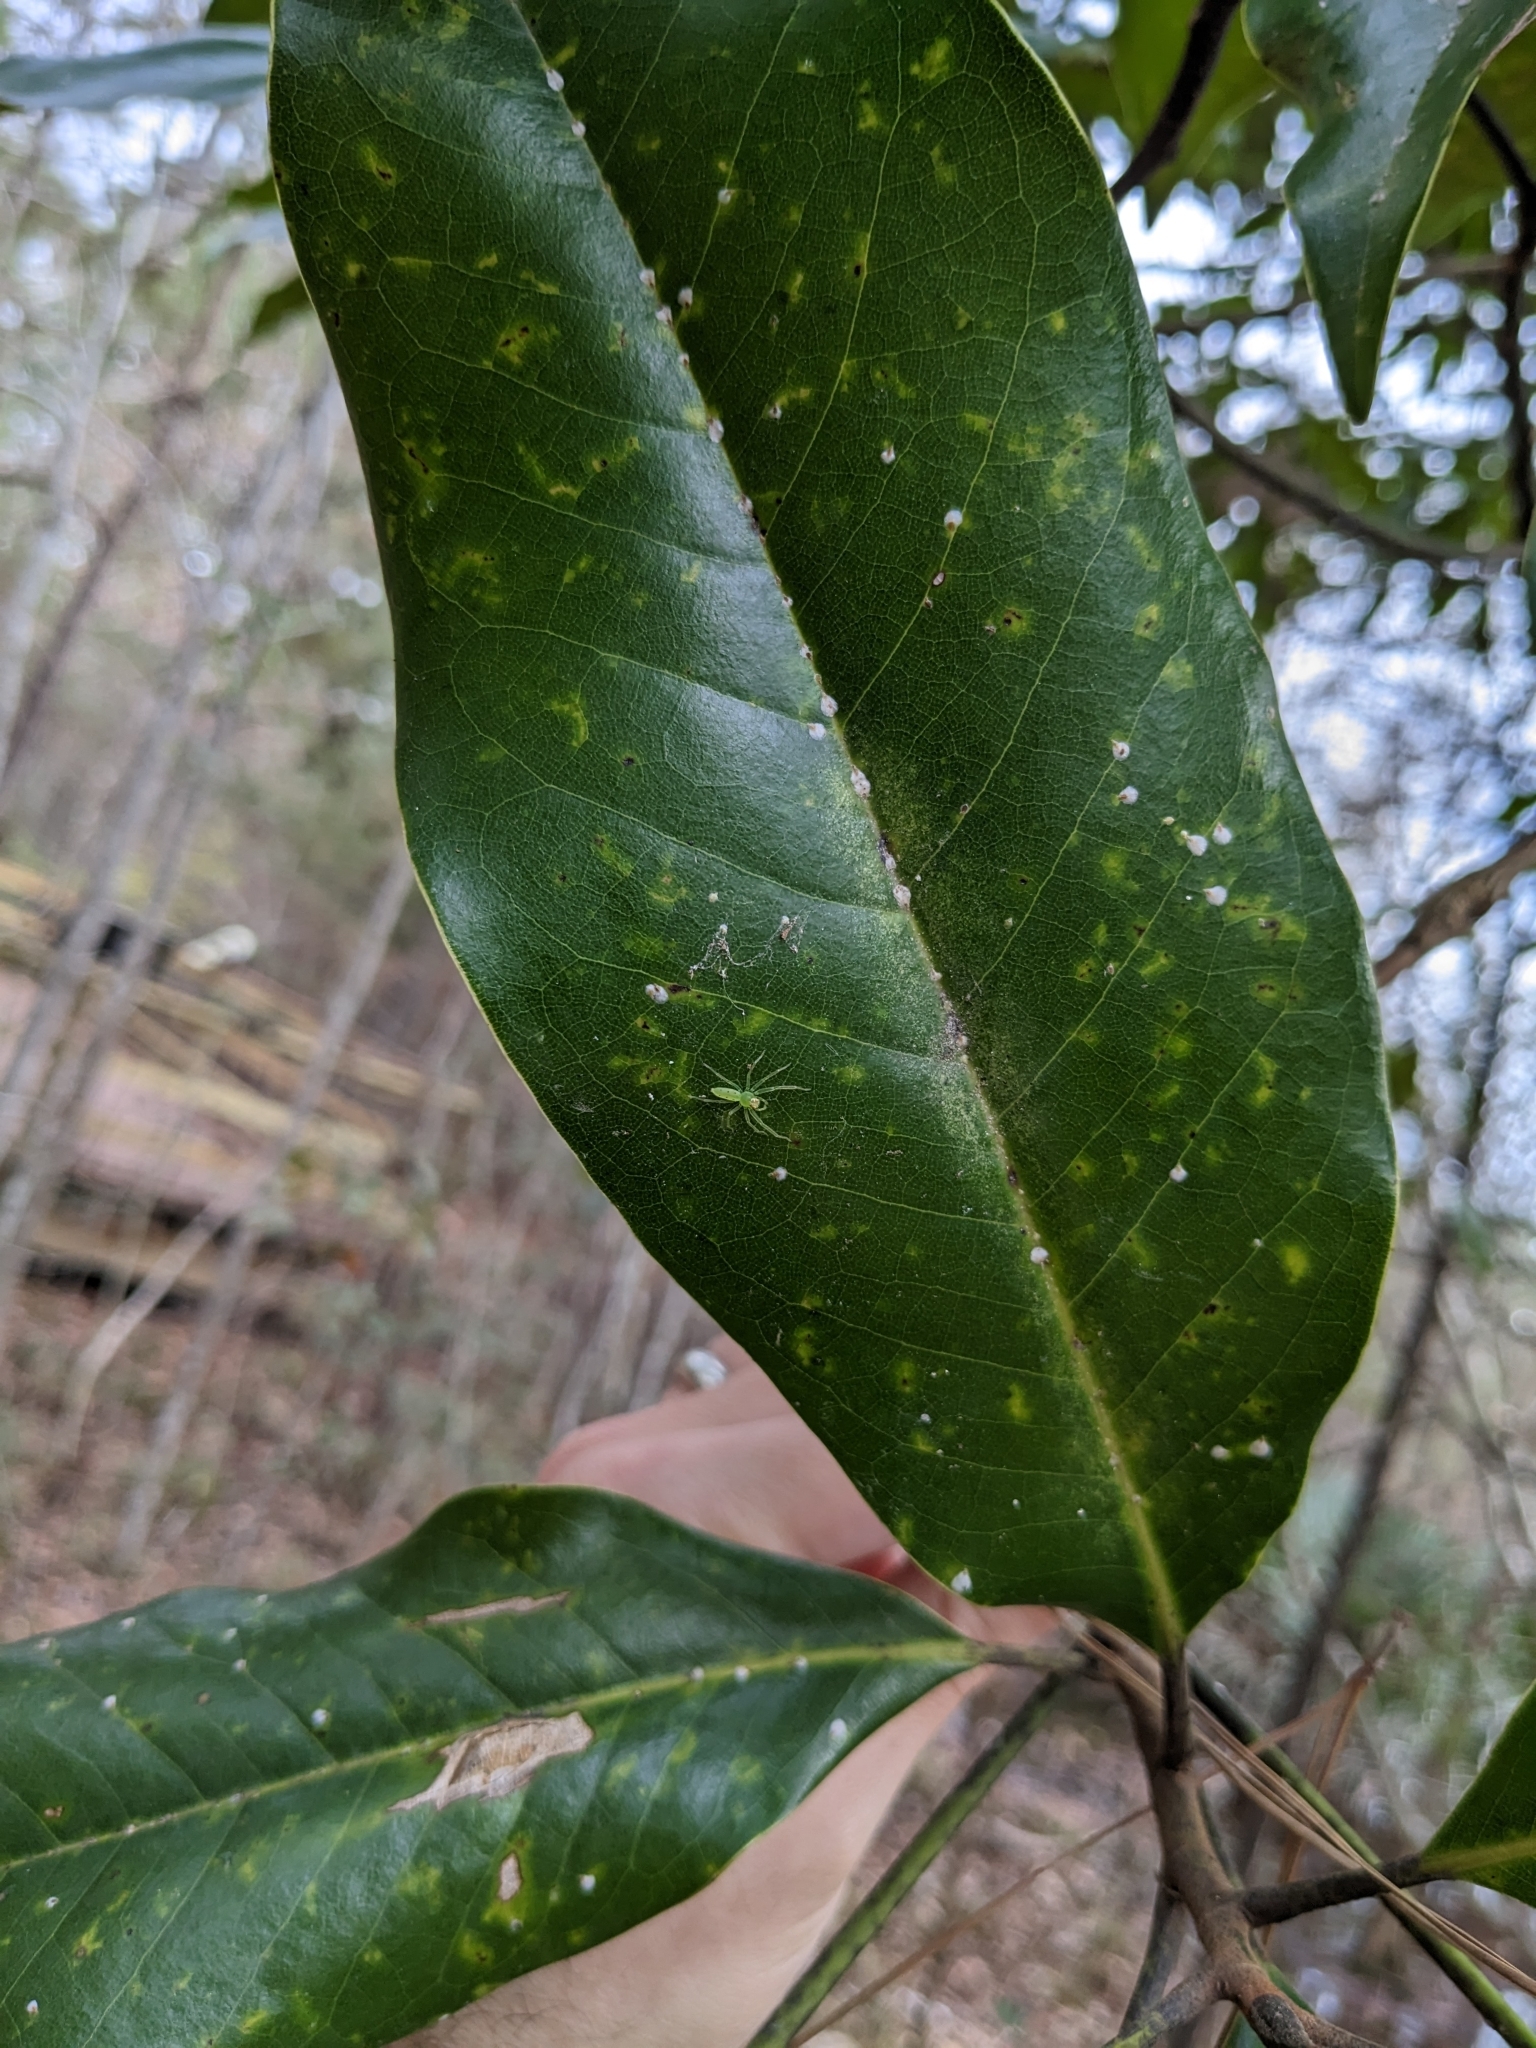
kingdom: Animalia
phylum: Arthropoda
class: Arachnida
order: Araneae
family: Salticidae
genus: Lyssomanes
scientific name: Lyssomanes viridis
